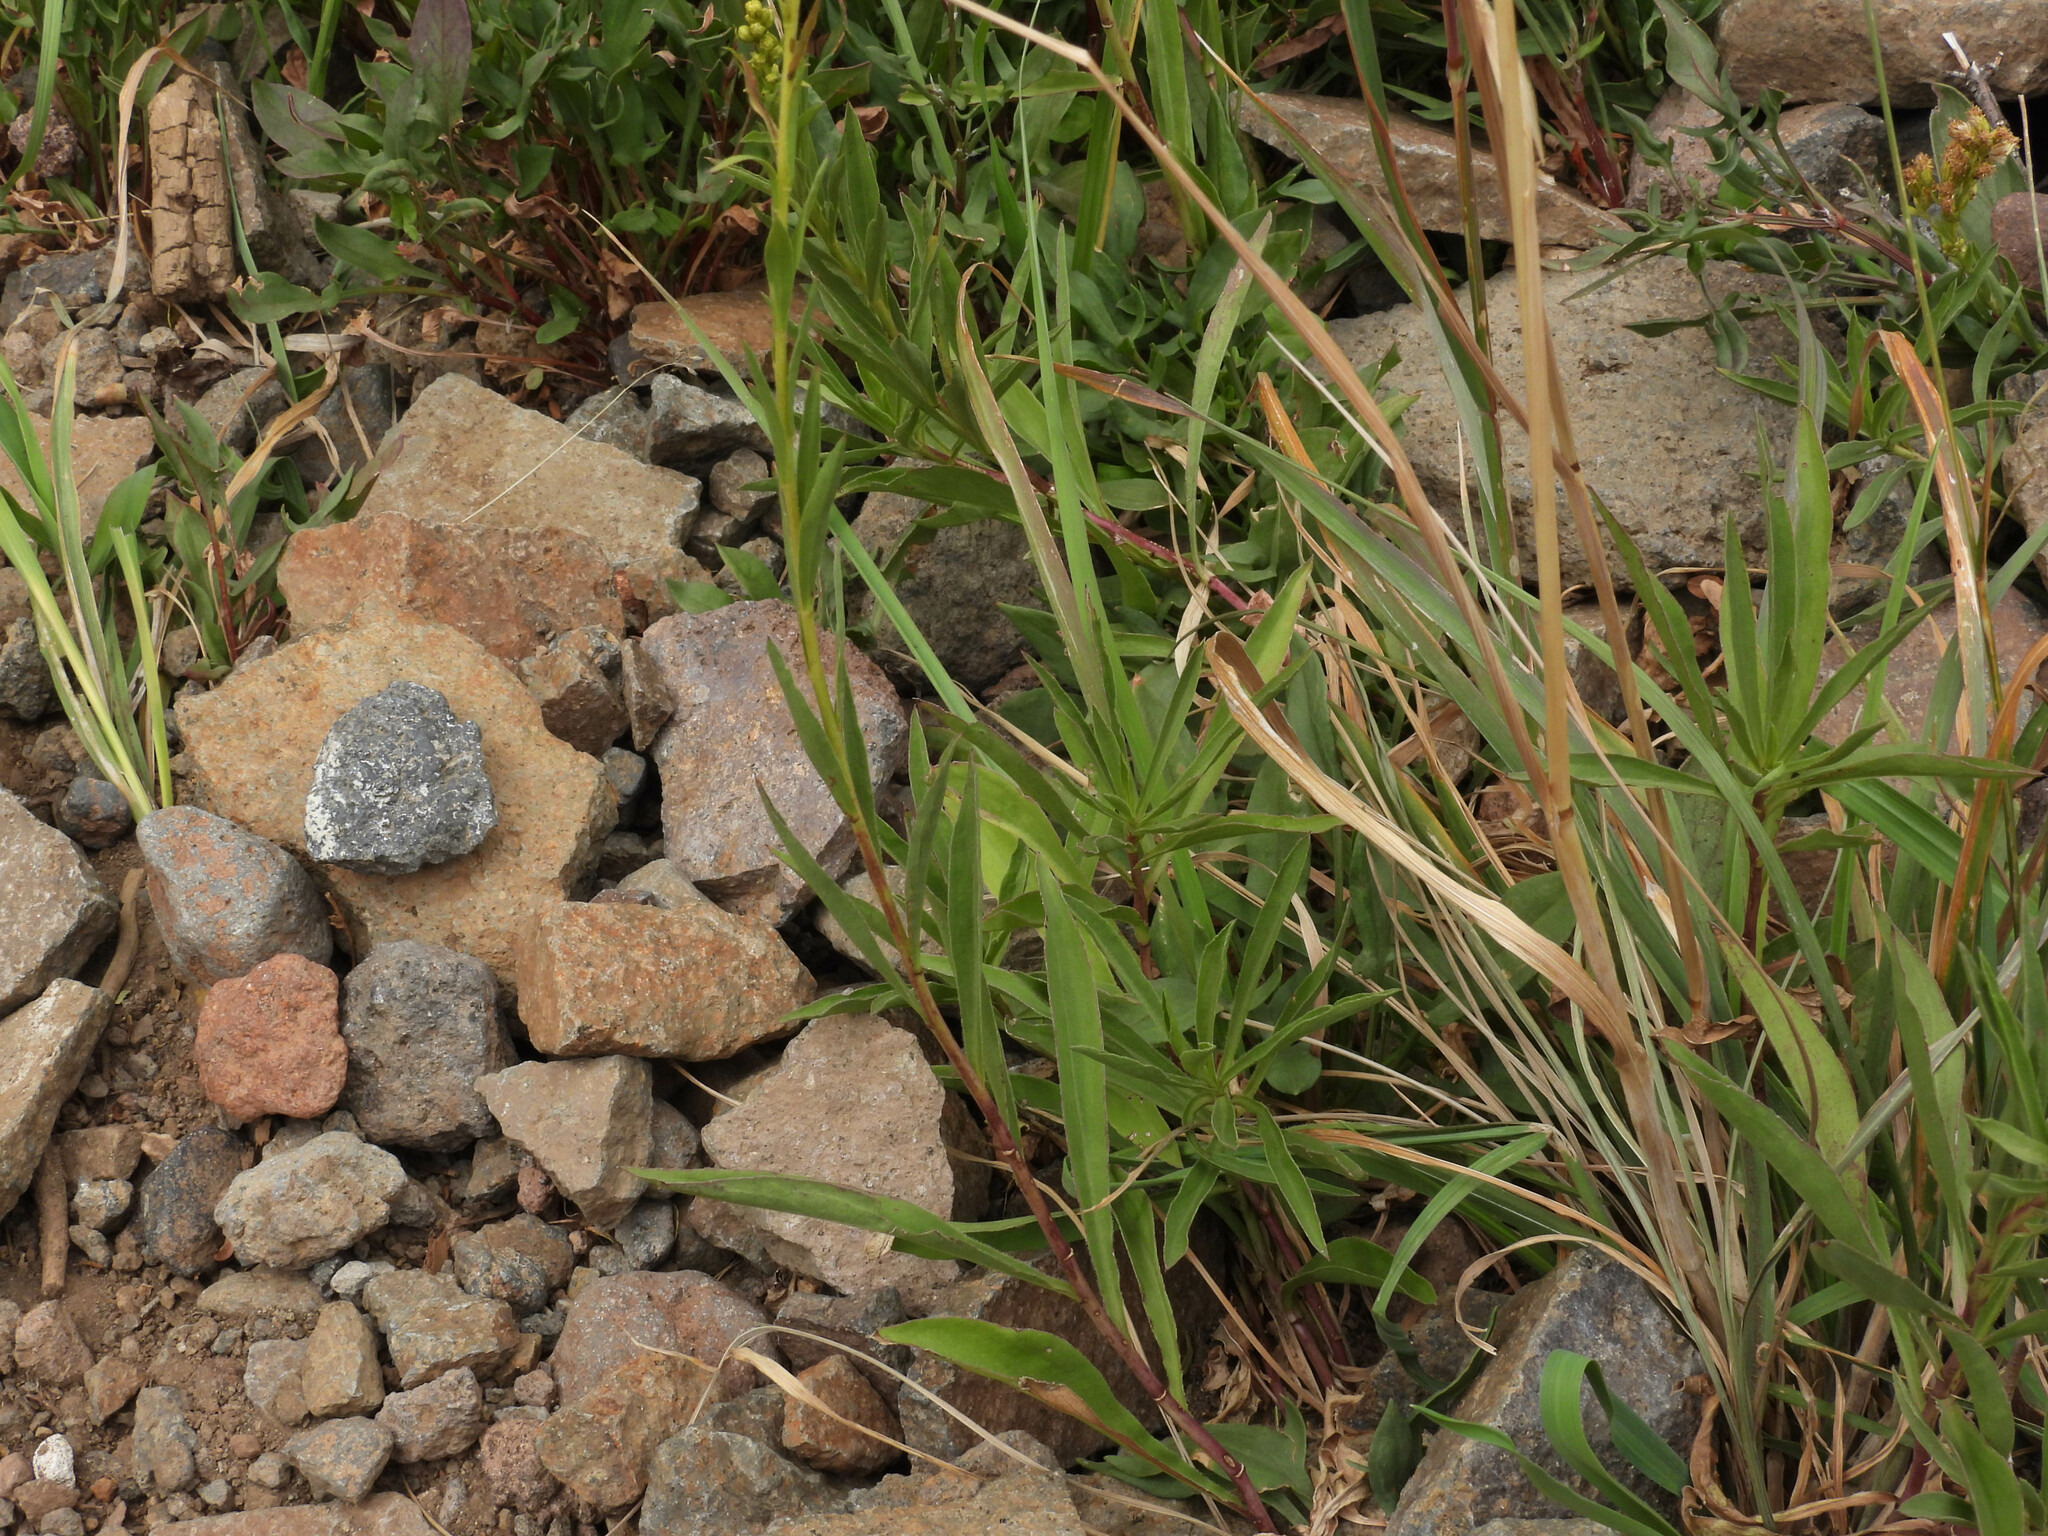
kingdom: Plantae
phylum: Tracheophyta
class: Magnoliopsida
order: Asterales
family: Asteraceae
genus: Solidago
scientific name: Solidago chilensis
